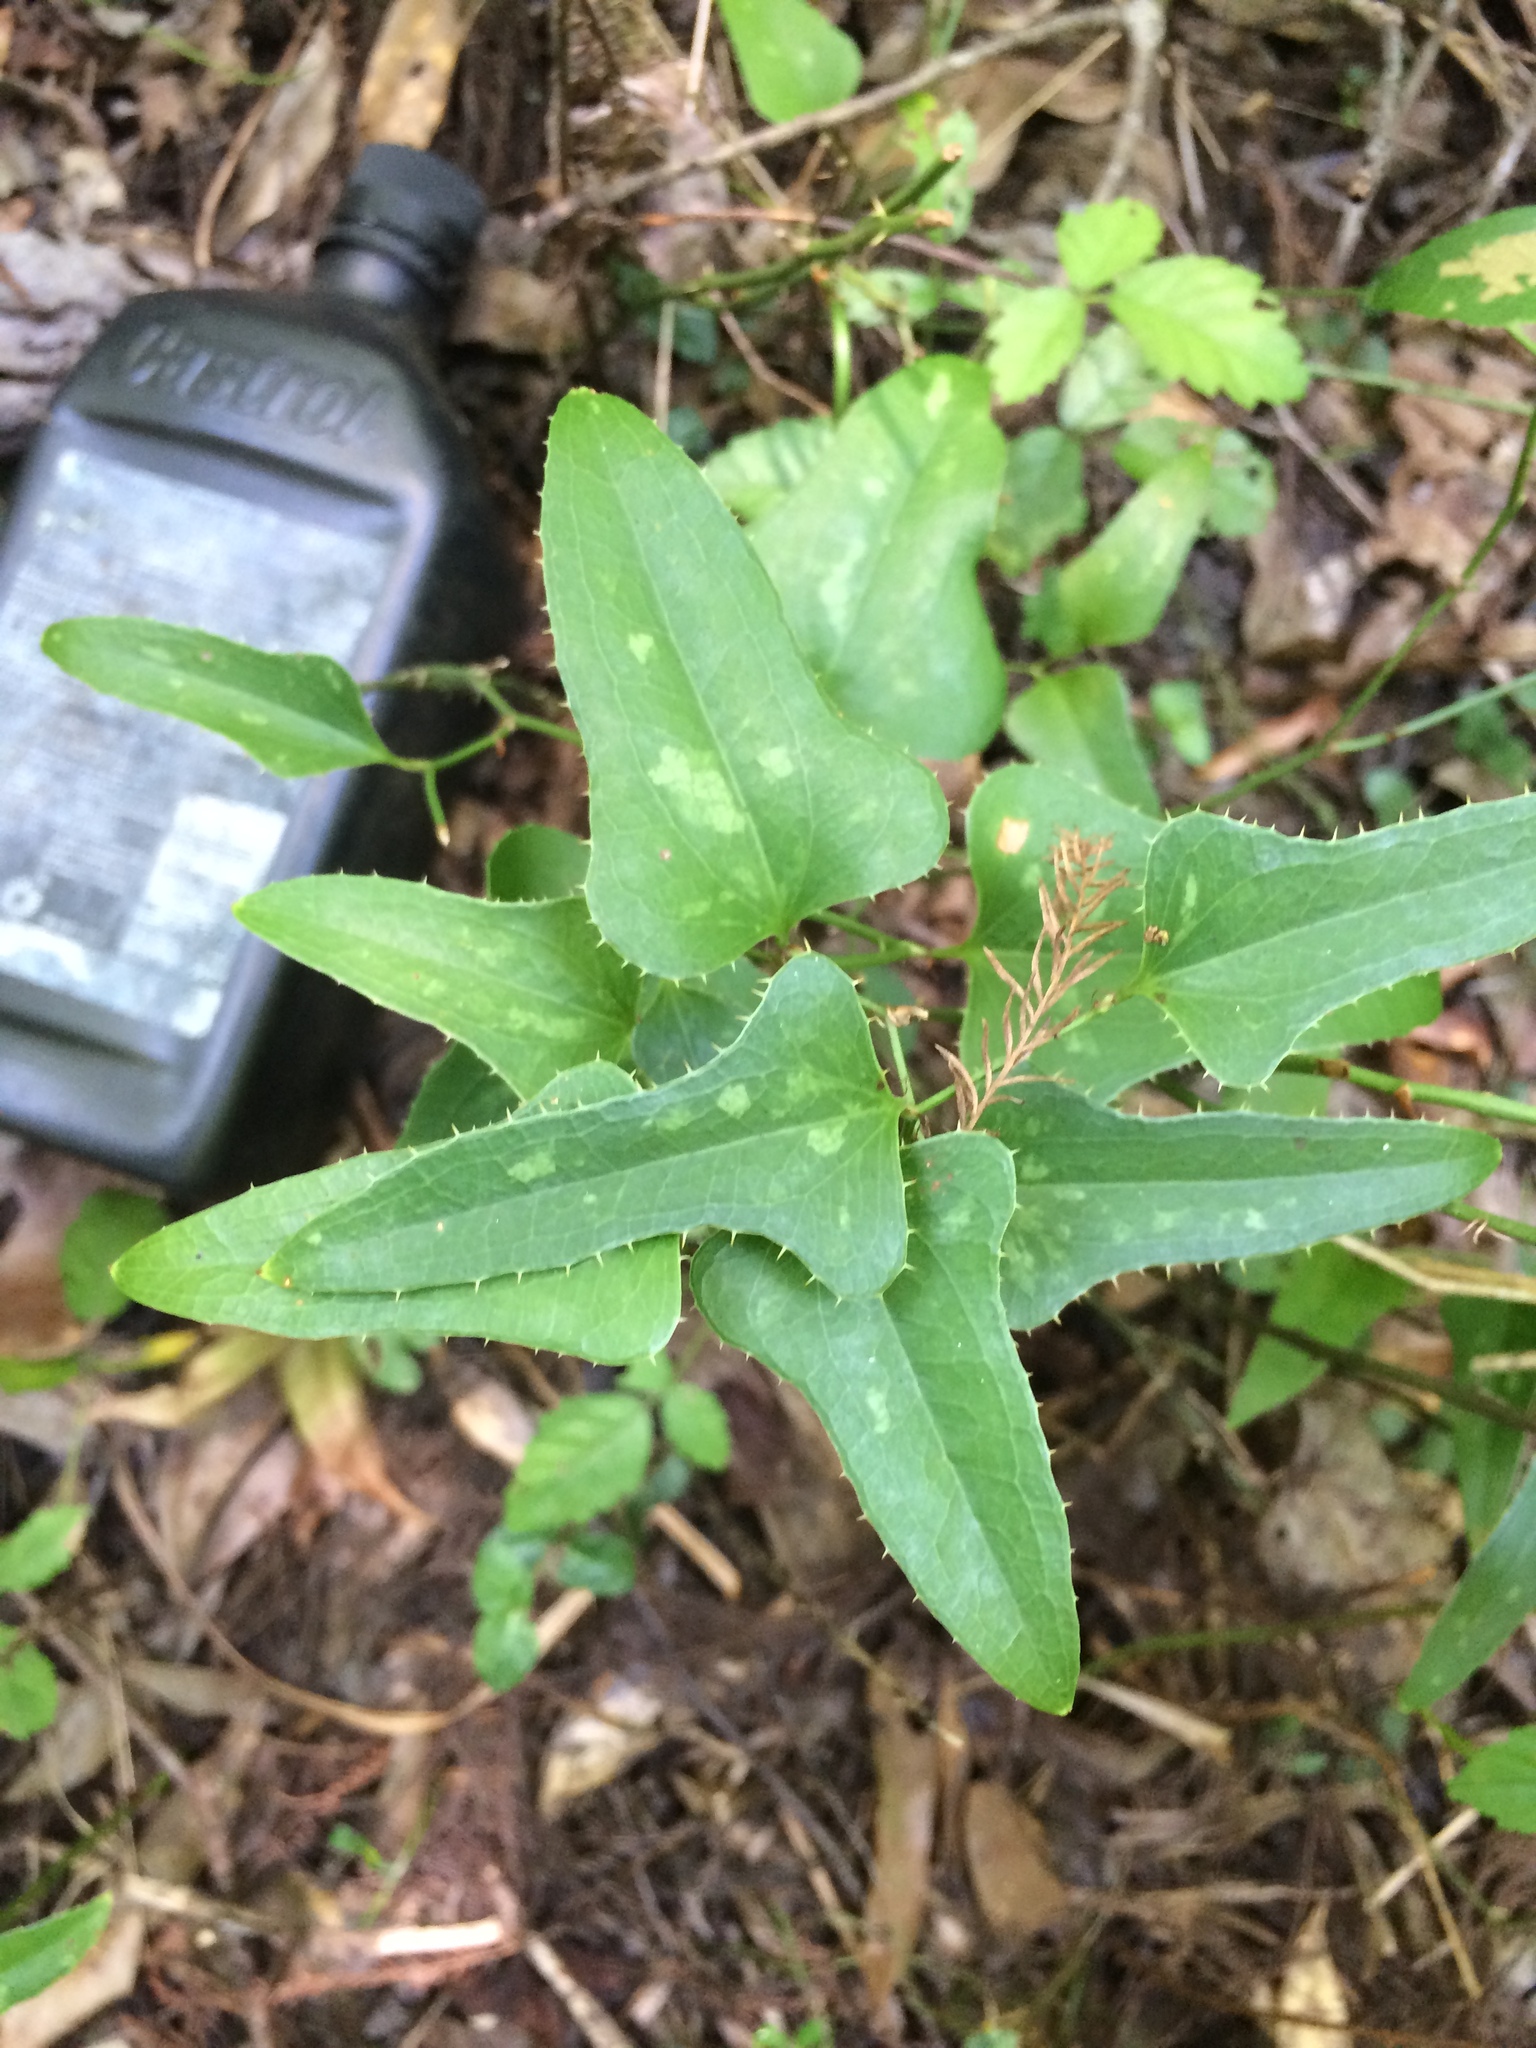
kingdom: Plantae
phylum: Tracheophyta
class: Liliopsida
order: Liliales
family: Smilacaceae
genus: Smilax
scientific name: Smilax bona-nox
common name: Catbrier
